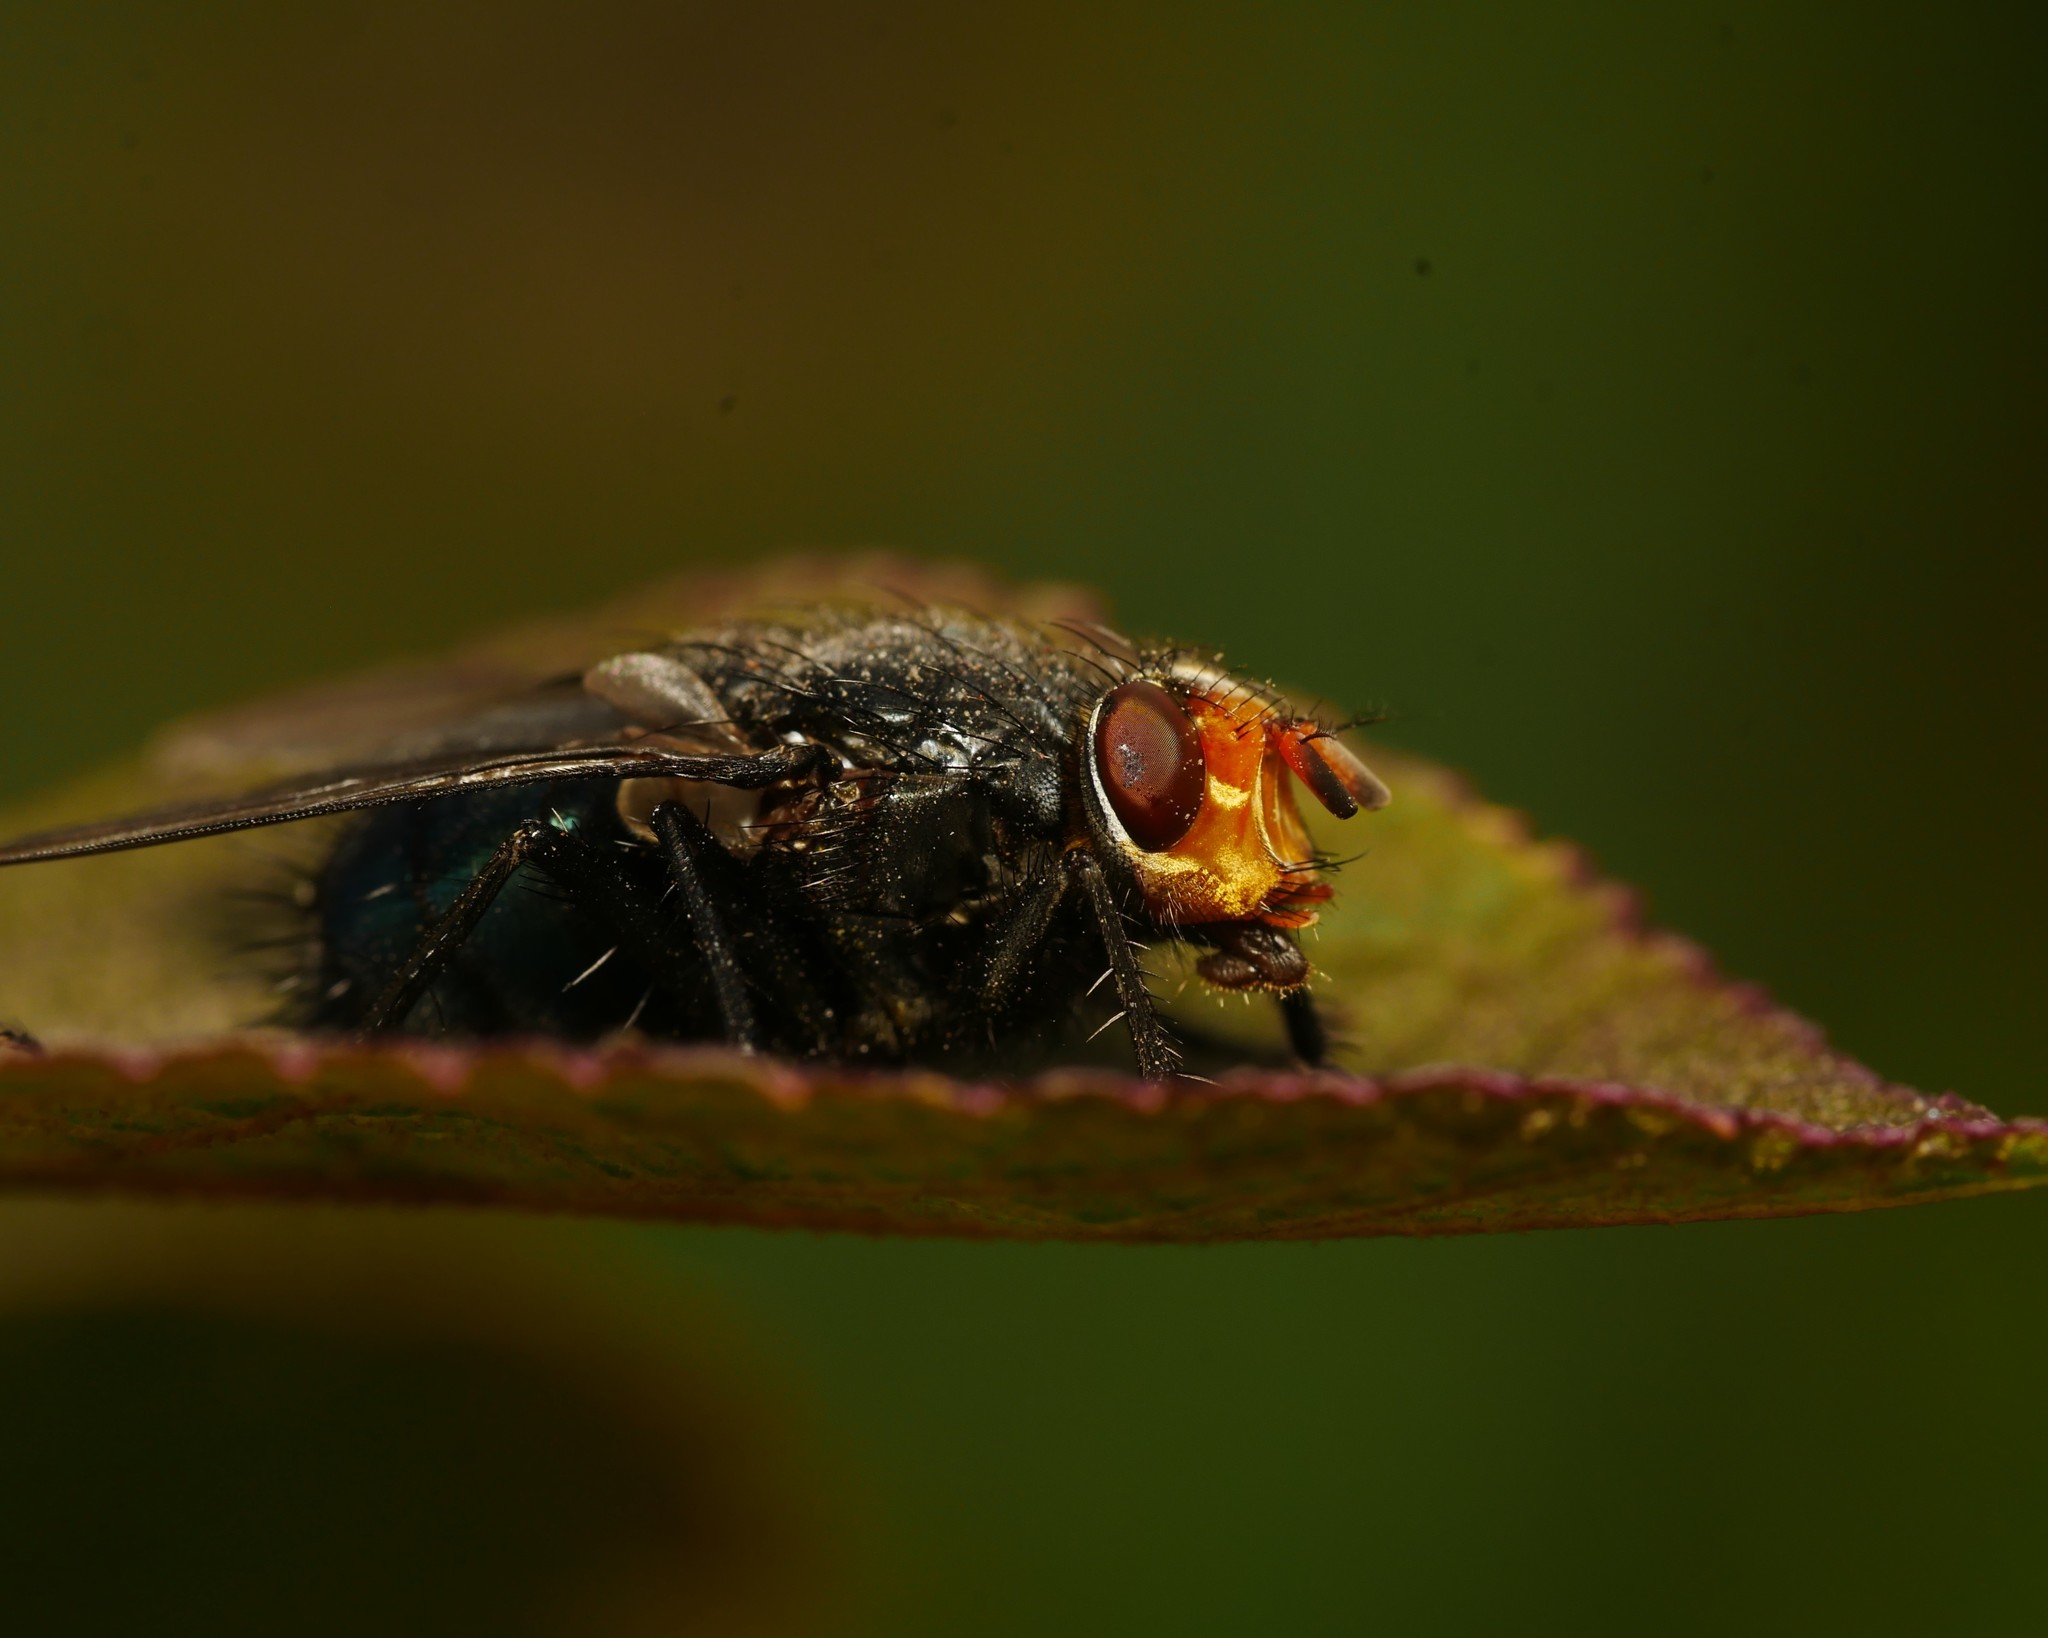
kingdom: Animalia
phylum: Arthropoda
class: Insecta
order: Diptera
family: Calliphoridae
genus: Cynomya
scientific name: Cynomya mortuorum
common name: Bluebottle blow fly
